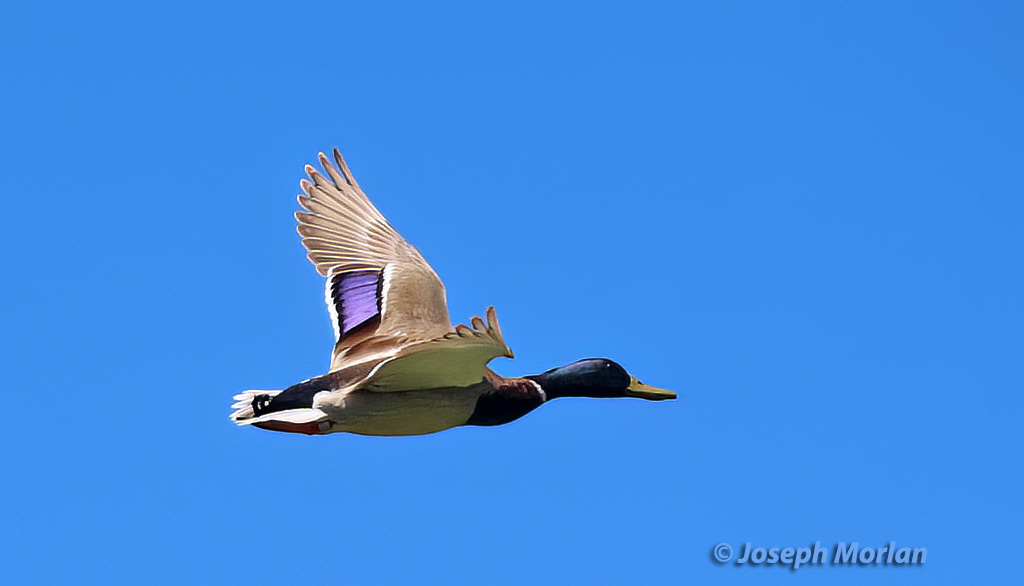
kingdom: Animalia
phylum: Chordata
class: Aves
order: Anseriformes
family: Anatidae
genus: Anas
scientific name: Anas platyrhynchos
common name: Mallard
